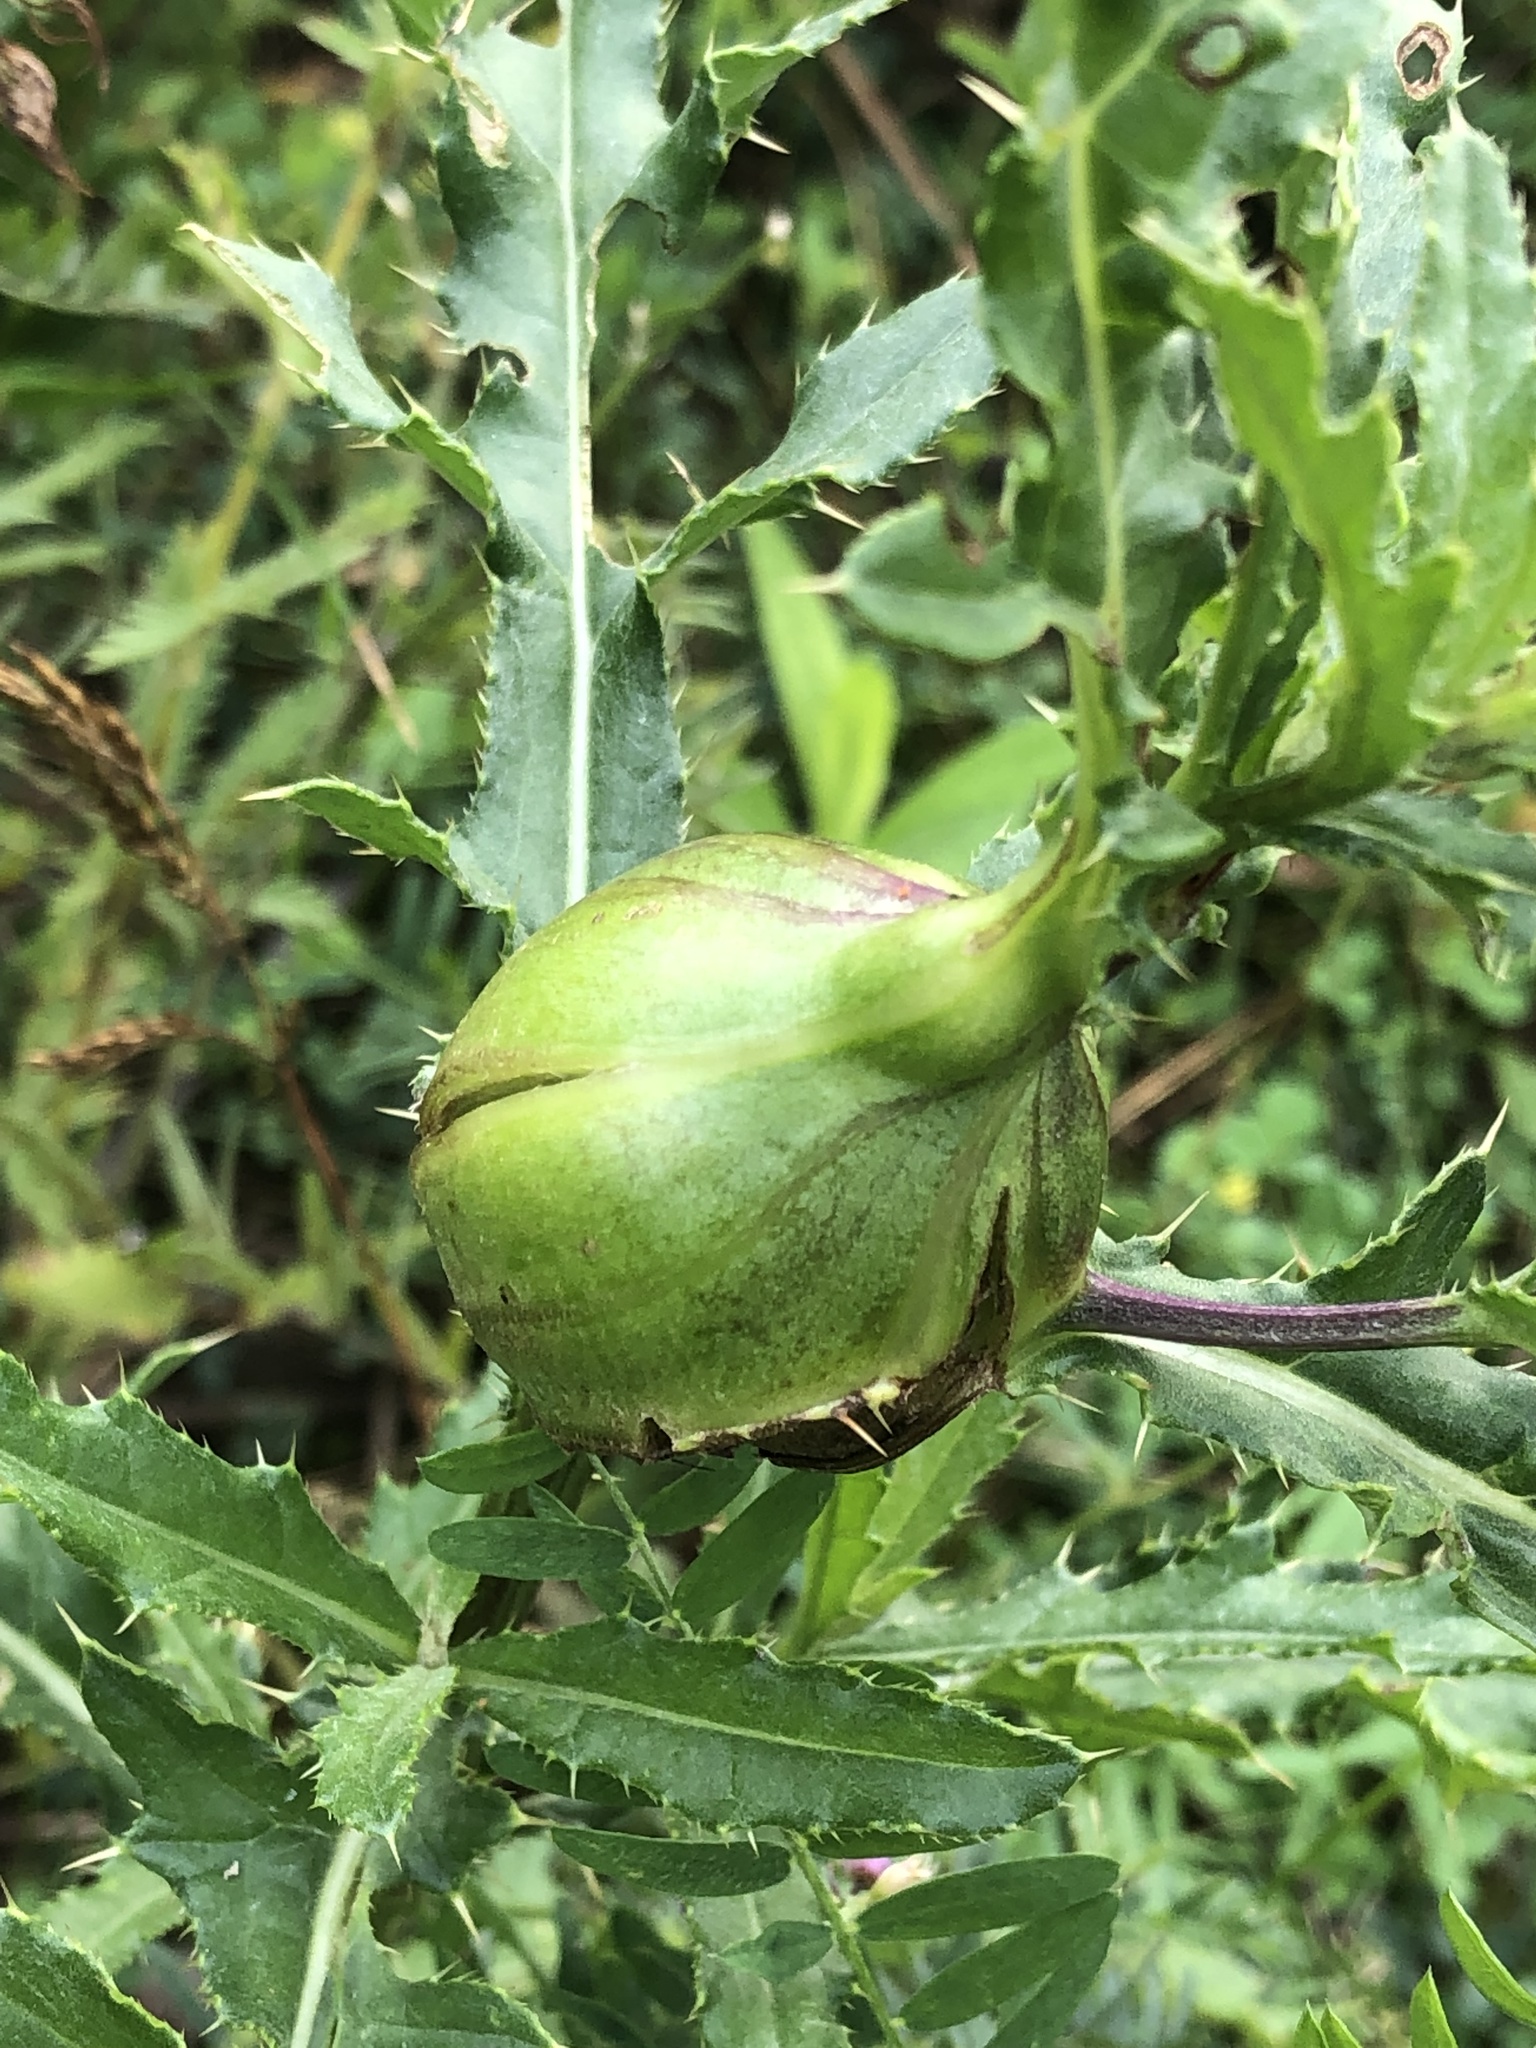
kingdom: Animalia
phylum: Arthropoda
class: Insecta
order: Diptera
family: Tephritidae
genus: Urophora
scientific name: Urophora cardui
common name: Fruit fly
